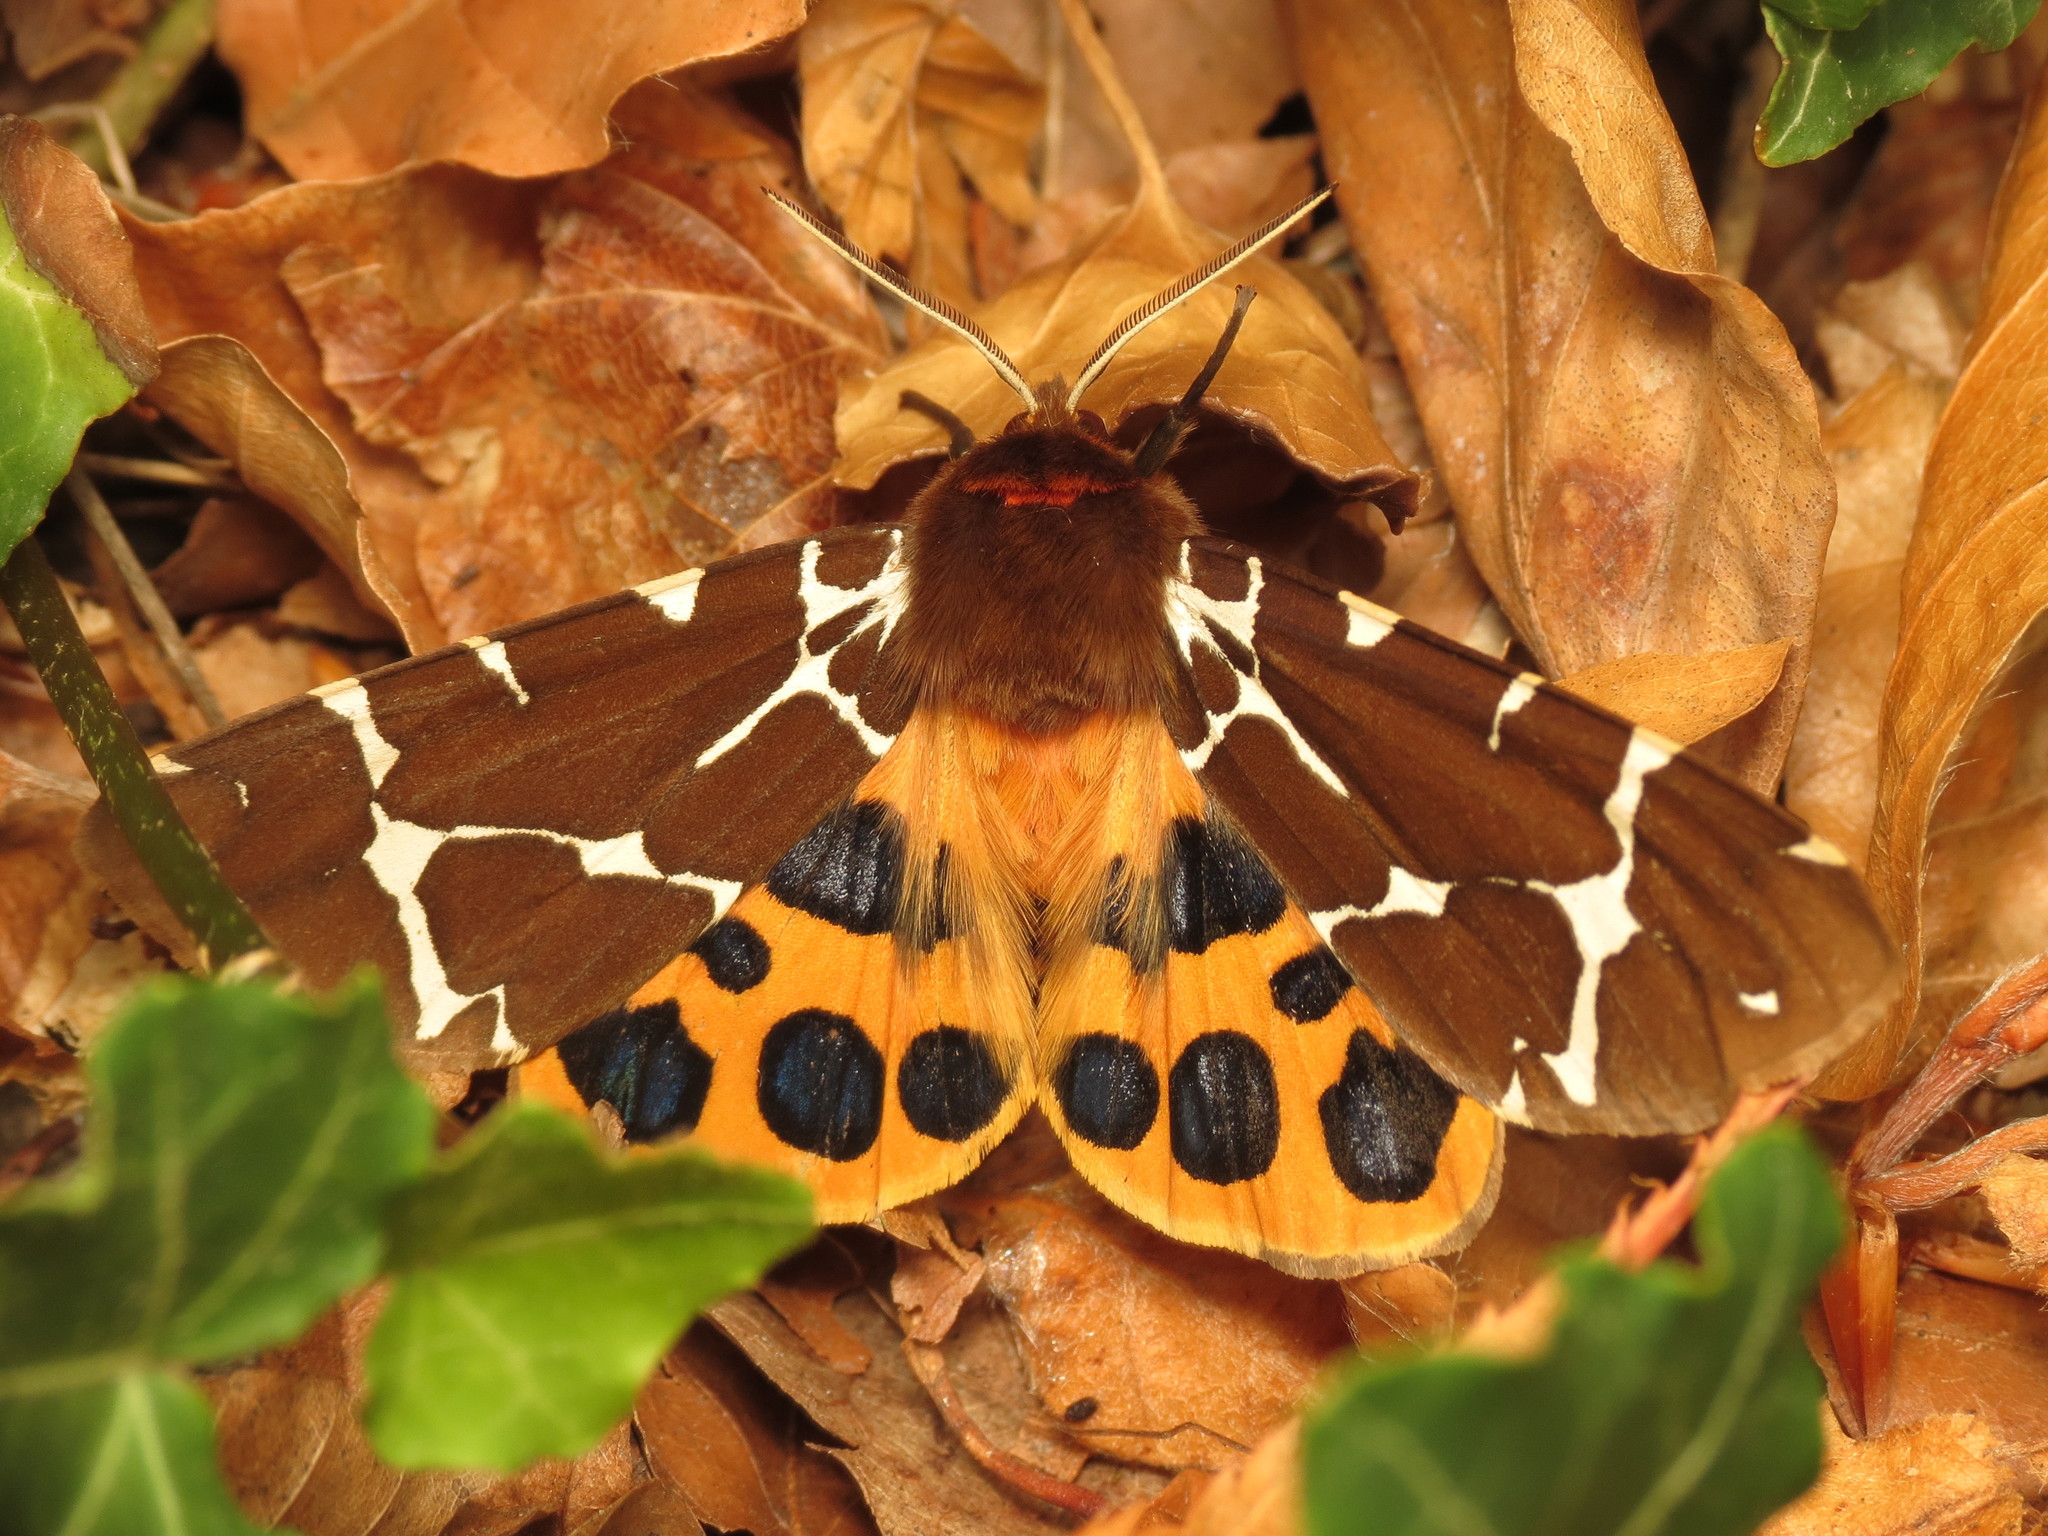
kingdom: Animalia
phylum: Arthropoda
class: Insecta
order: Lepidoptera
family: Erebidae
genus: Arctia
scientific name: Arctia caja
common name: Garden tiger
